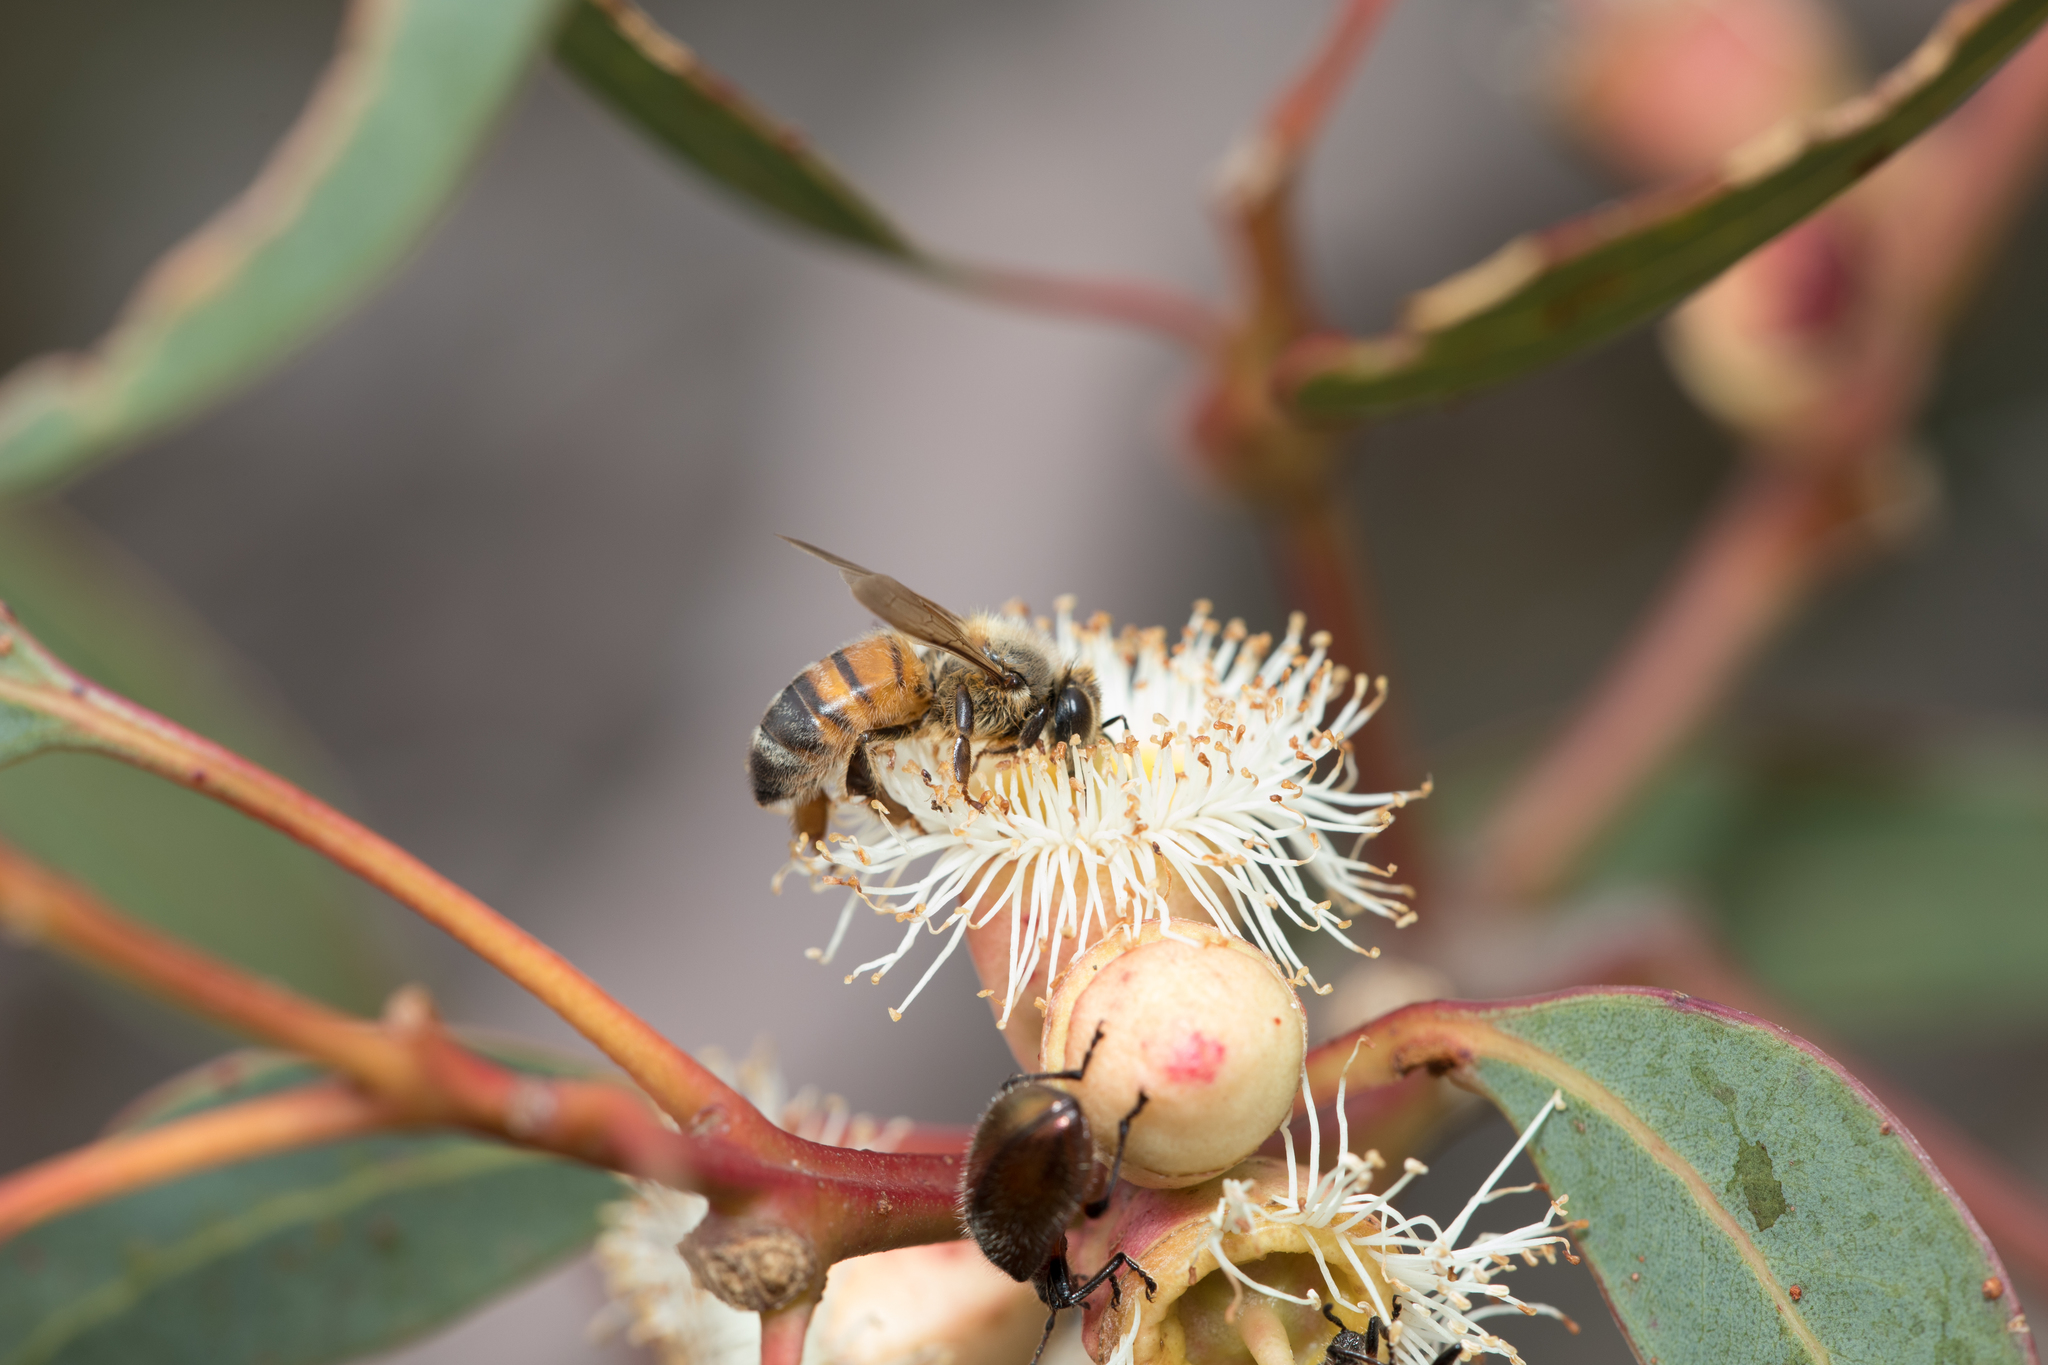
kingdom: Animalia
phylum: Arthropoda
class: Insecta
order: Hymenoptera
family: Apidae
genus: Apis
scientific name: Apis mellifera
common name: Honey bee
